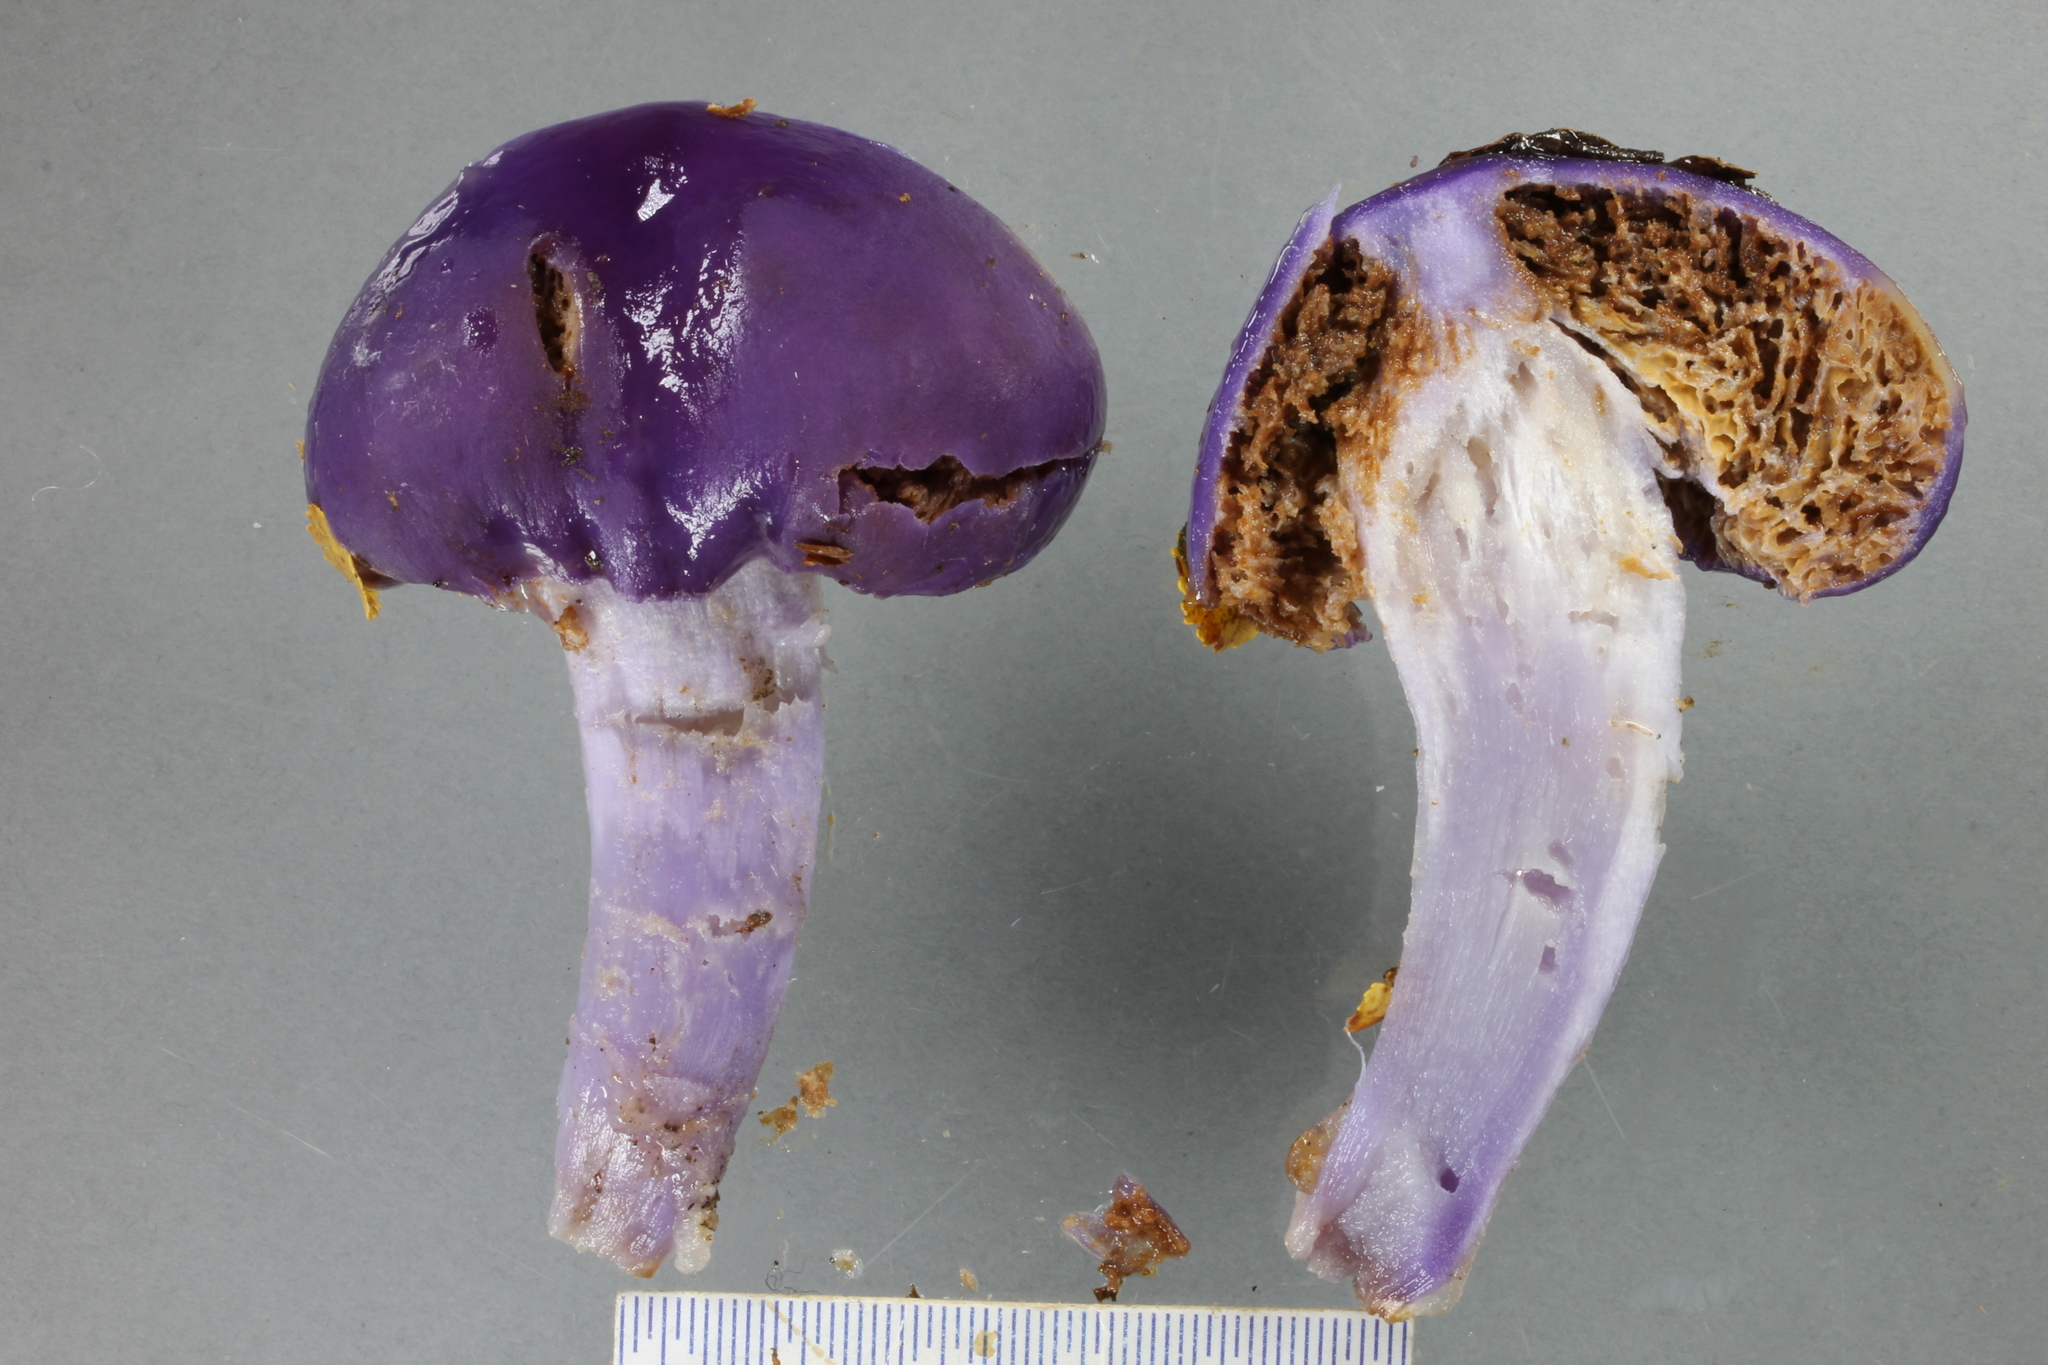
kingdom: Fungi
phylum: Basidiomycota
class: Agaricomycetes
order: Agaricales
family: Cortinariaceae
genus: Cortinarius
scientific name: Cortinarius purpureocapitatus
